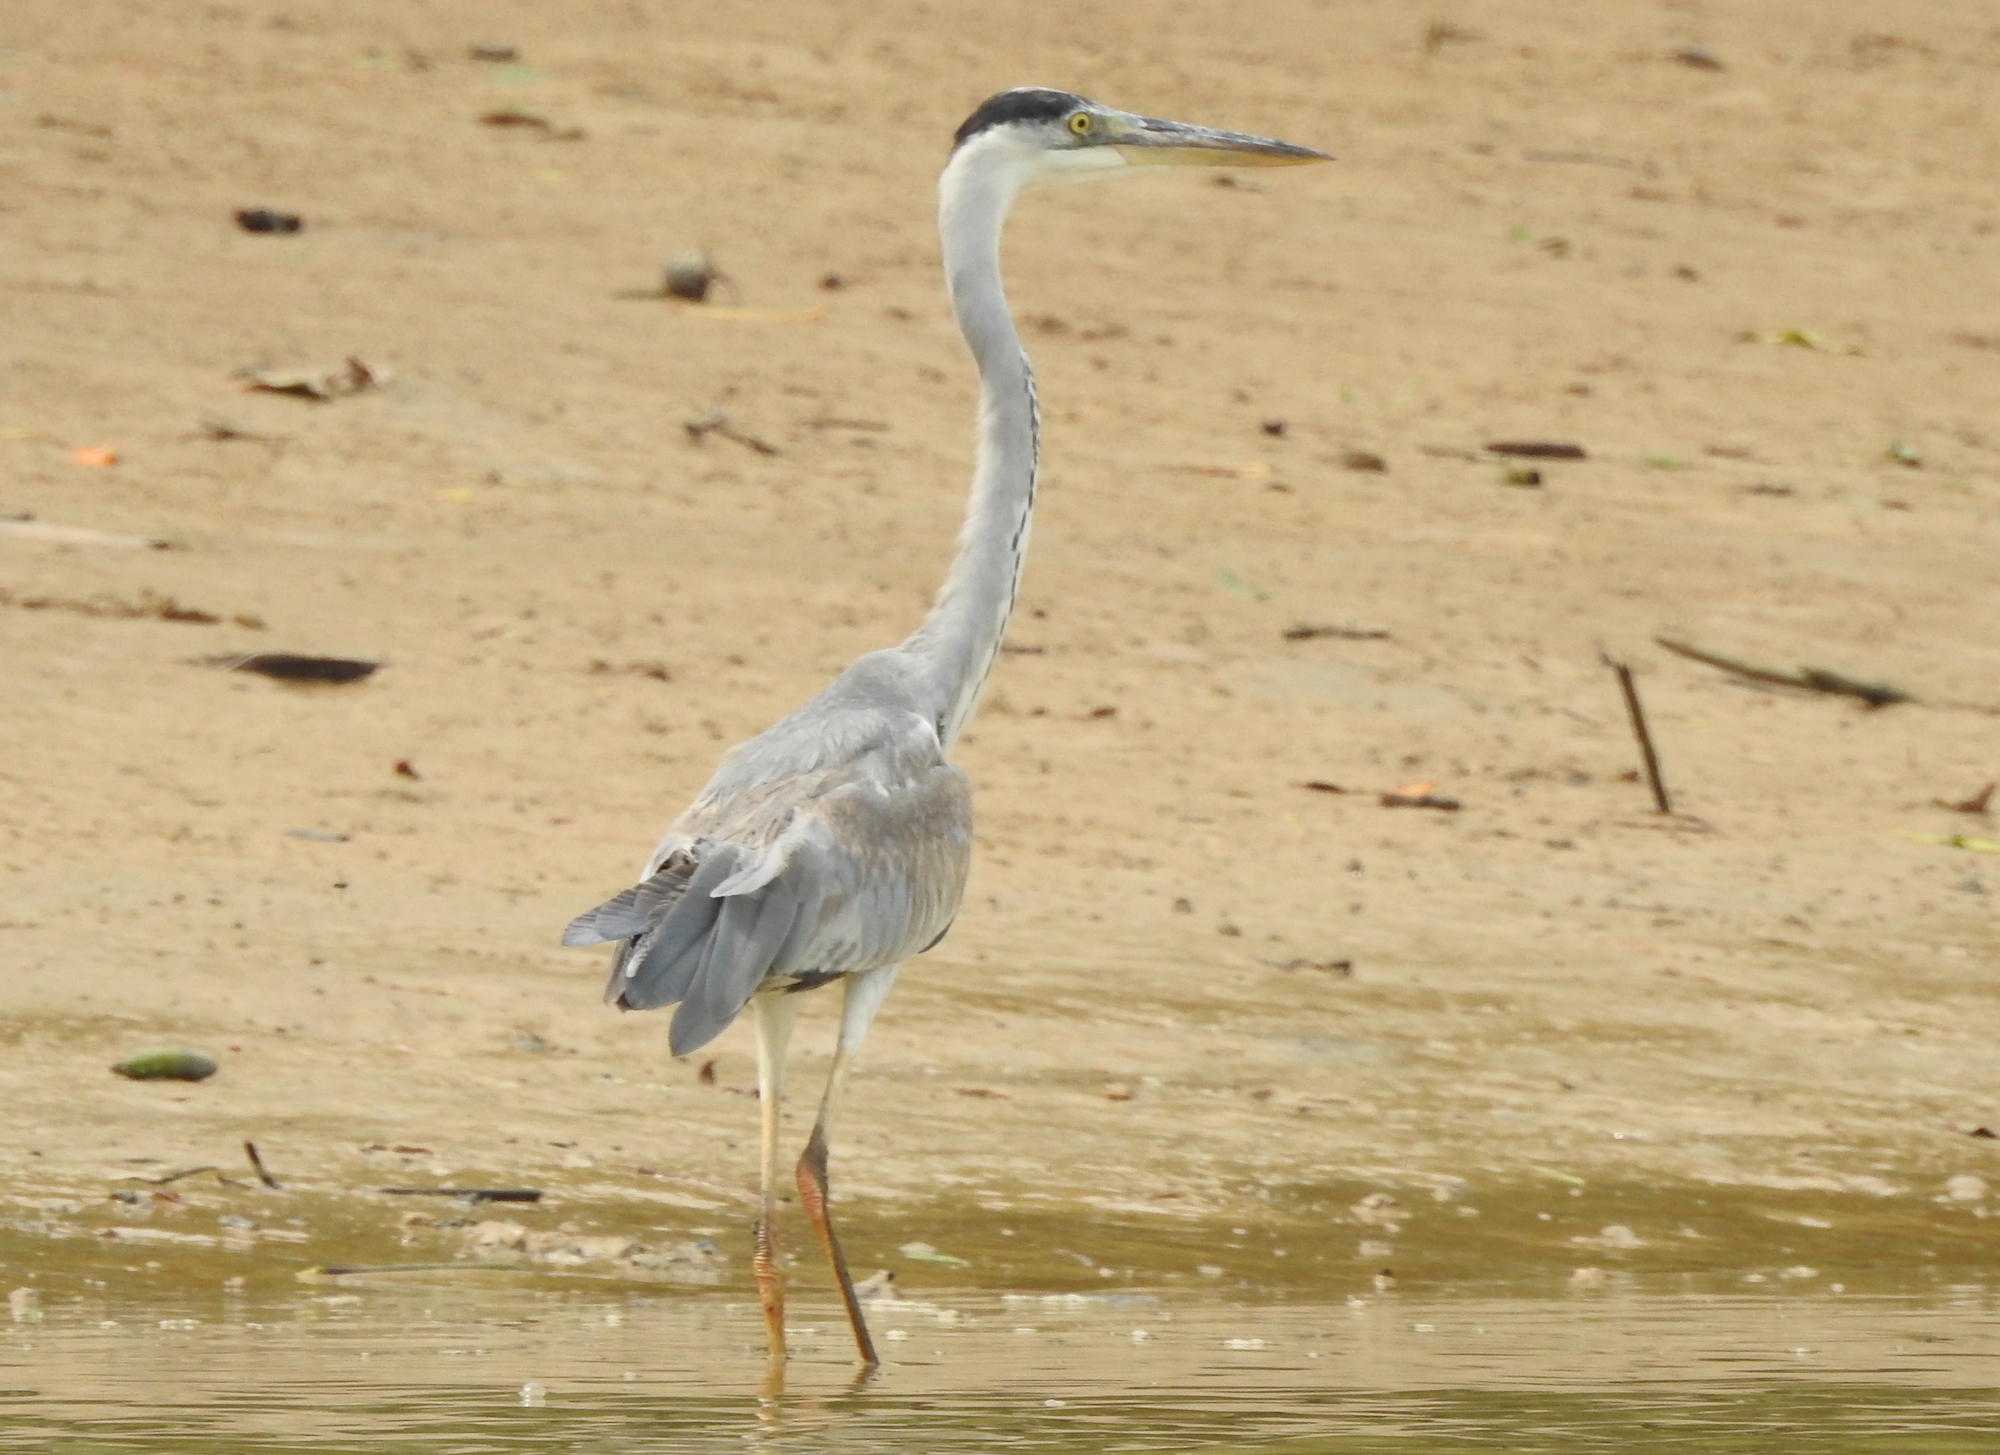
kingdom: Animalia
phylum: Chordata
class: Aves
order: Pelecaniformes
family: Ardeidae
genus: Ardea
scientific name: Ardea cinerea
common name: Grey heron
